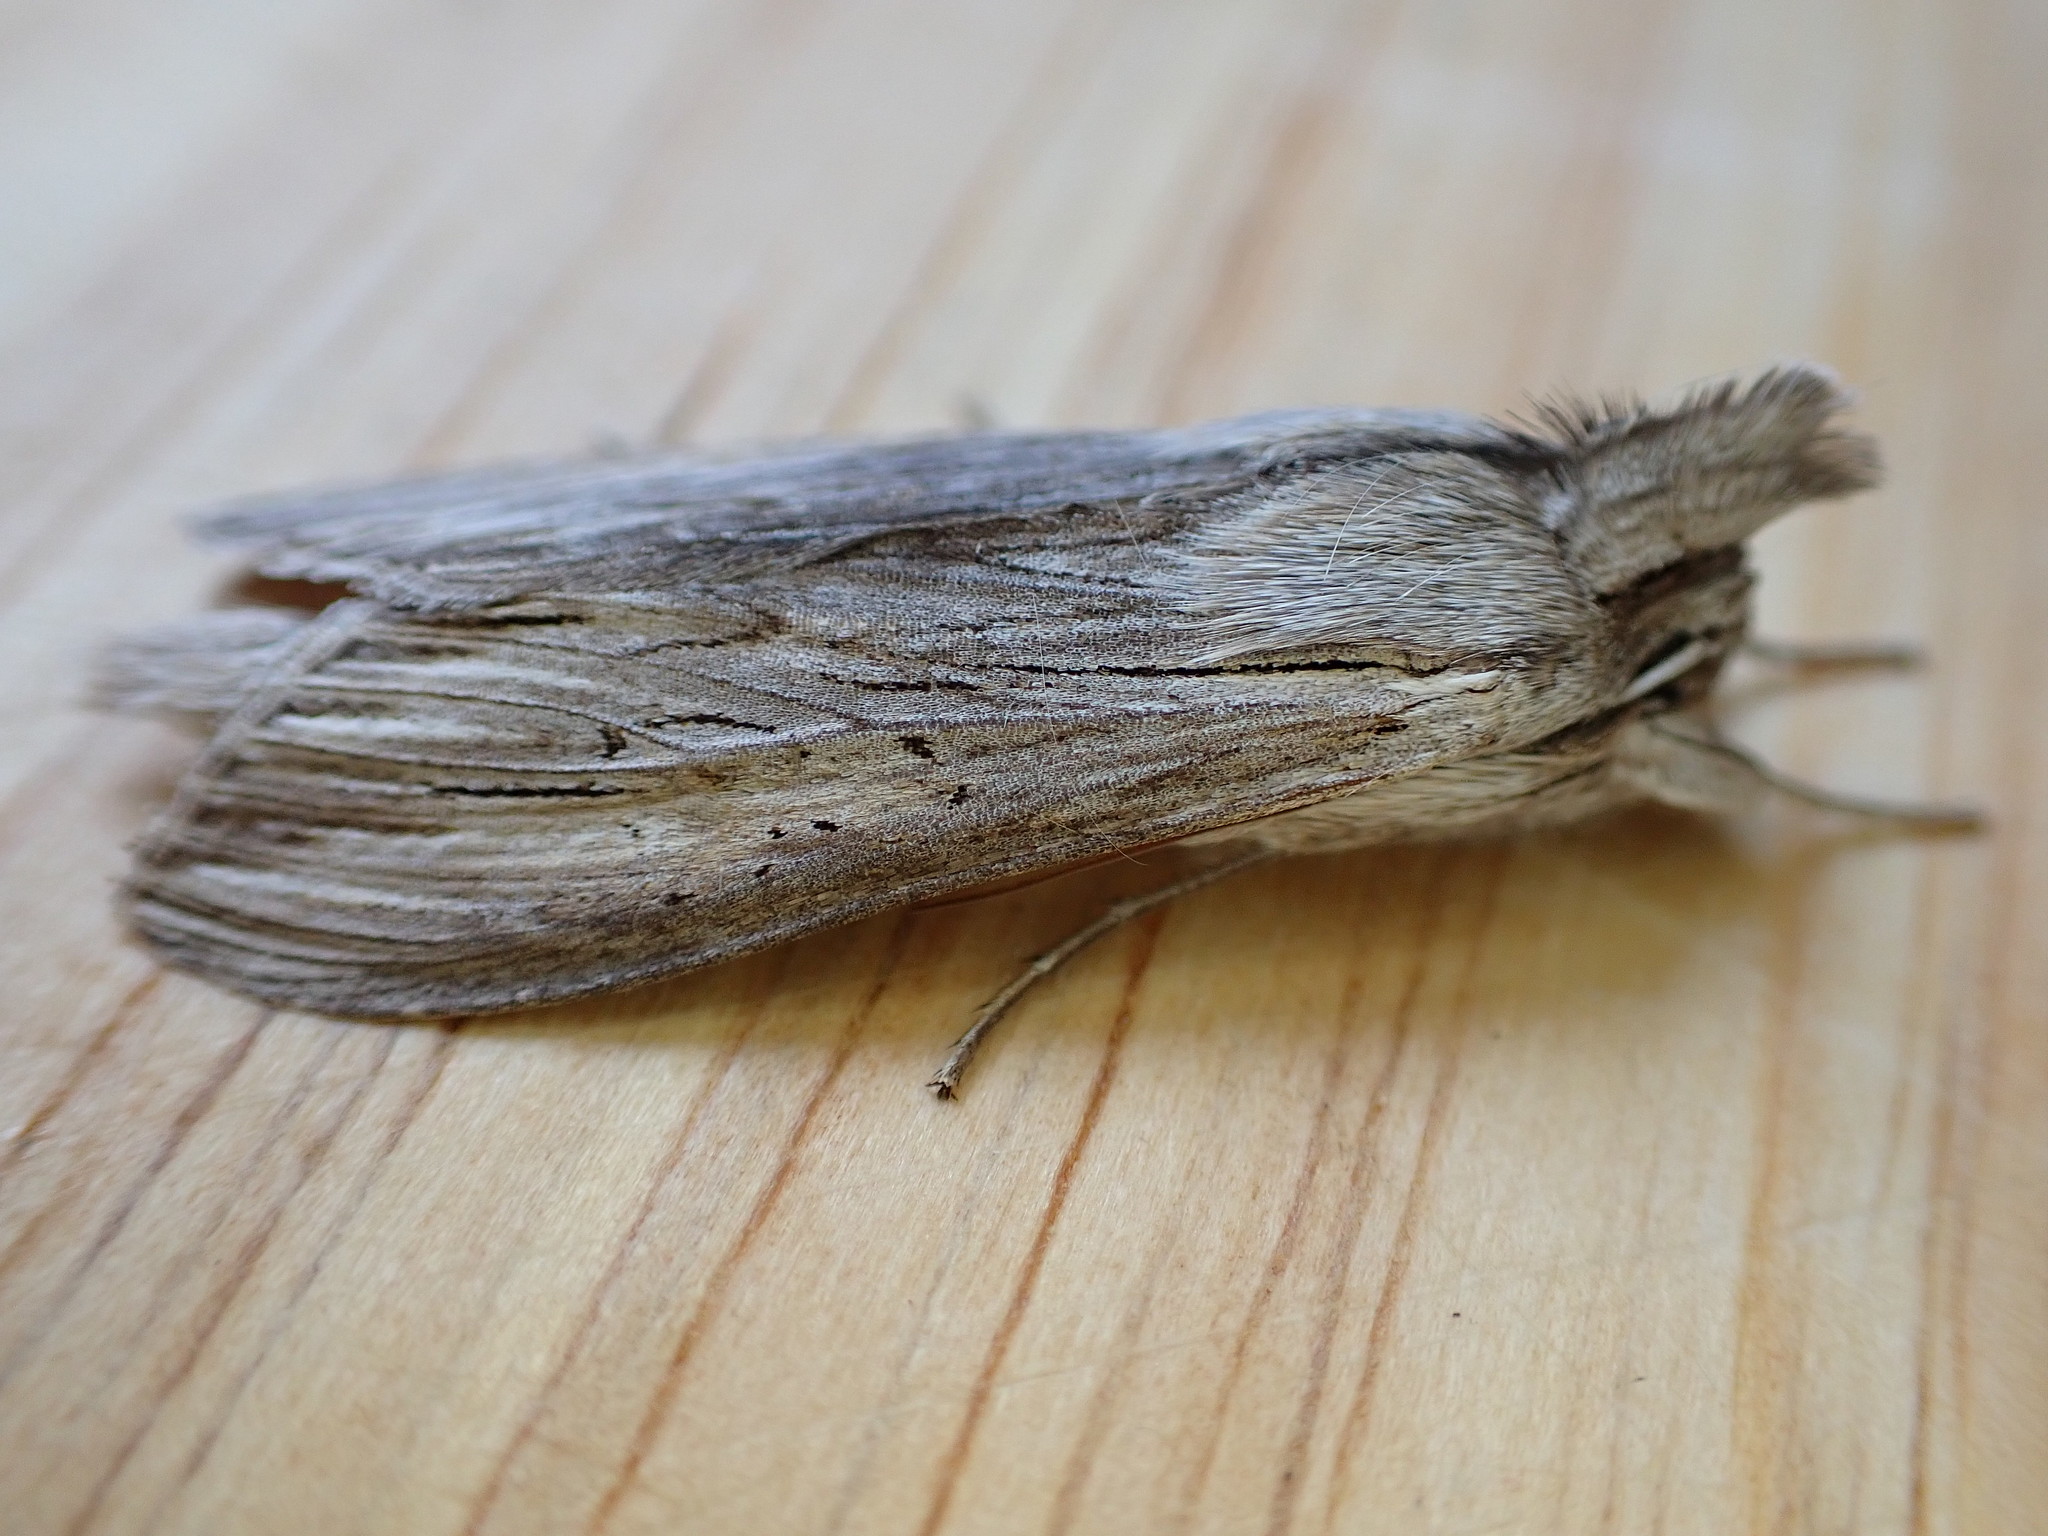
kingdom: Animalia
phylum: Arthropoda
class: Insecta
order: Lepidoptera
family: Noctuidae
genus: Cucullia
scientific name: Cucullia umbratica
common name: Shark
